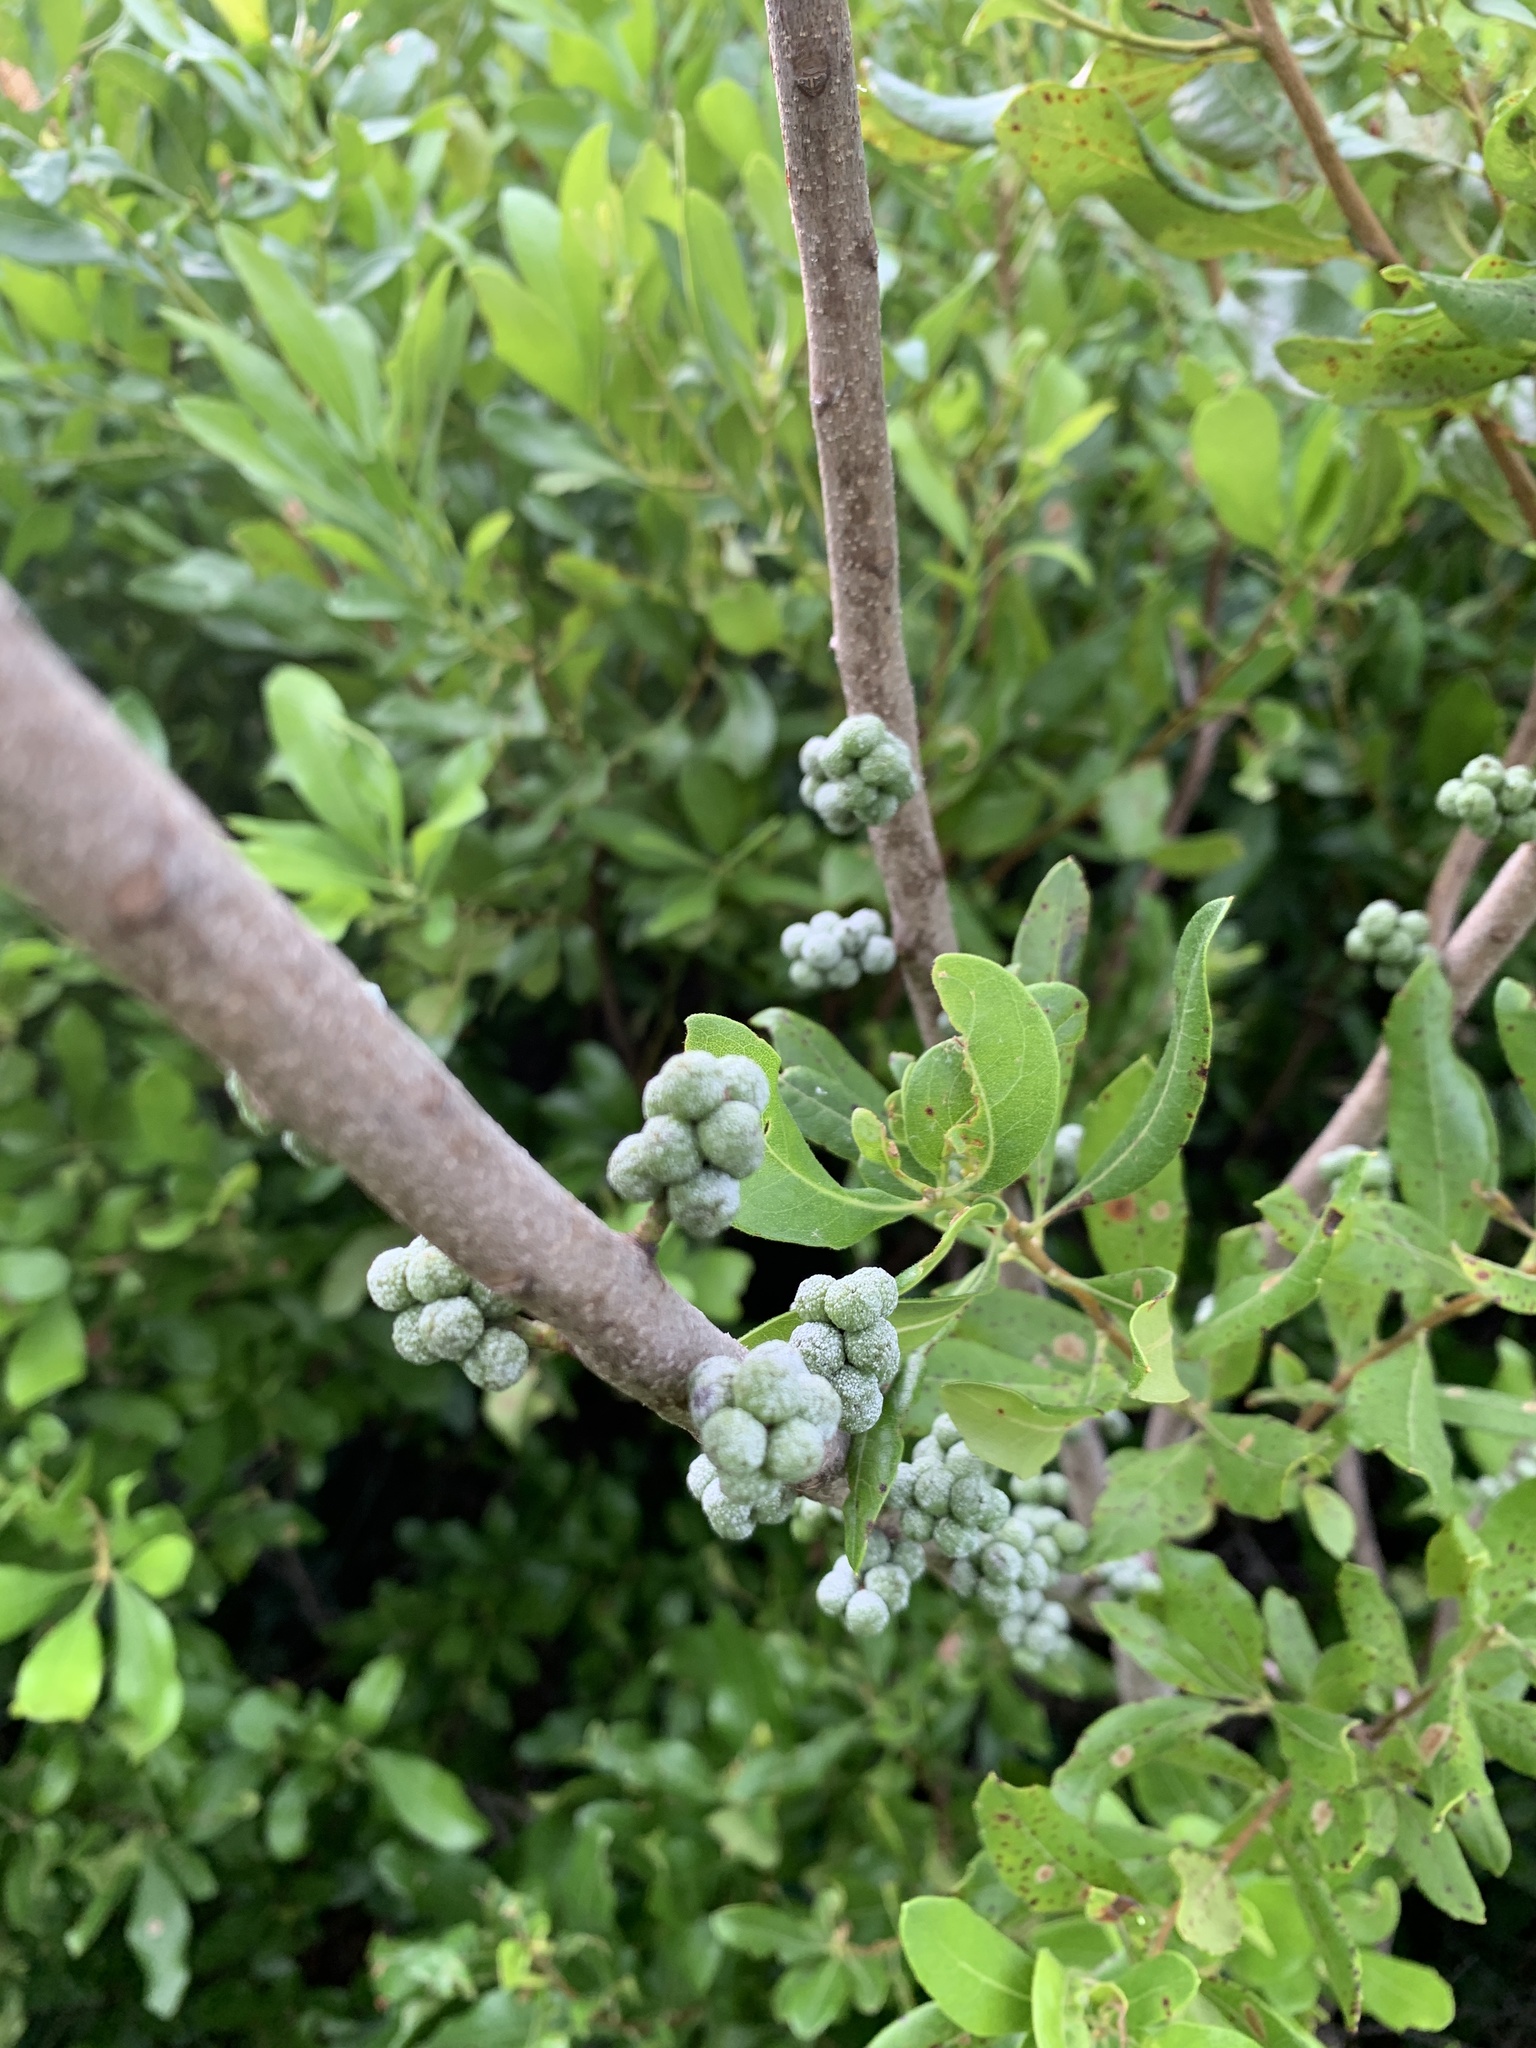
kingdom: Plantae
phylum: Tracheophyta
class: Magnoliopsida
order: Fagales
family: Myricaceae
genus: Morella
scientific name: Morella pensylvanica
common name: Northern bayberry
